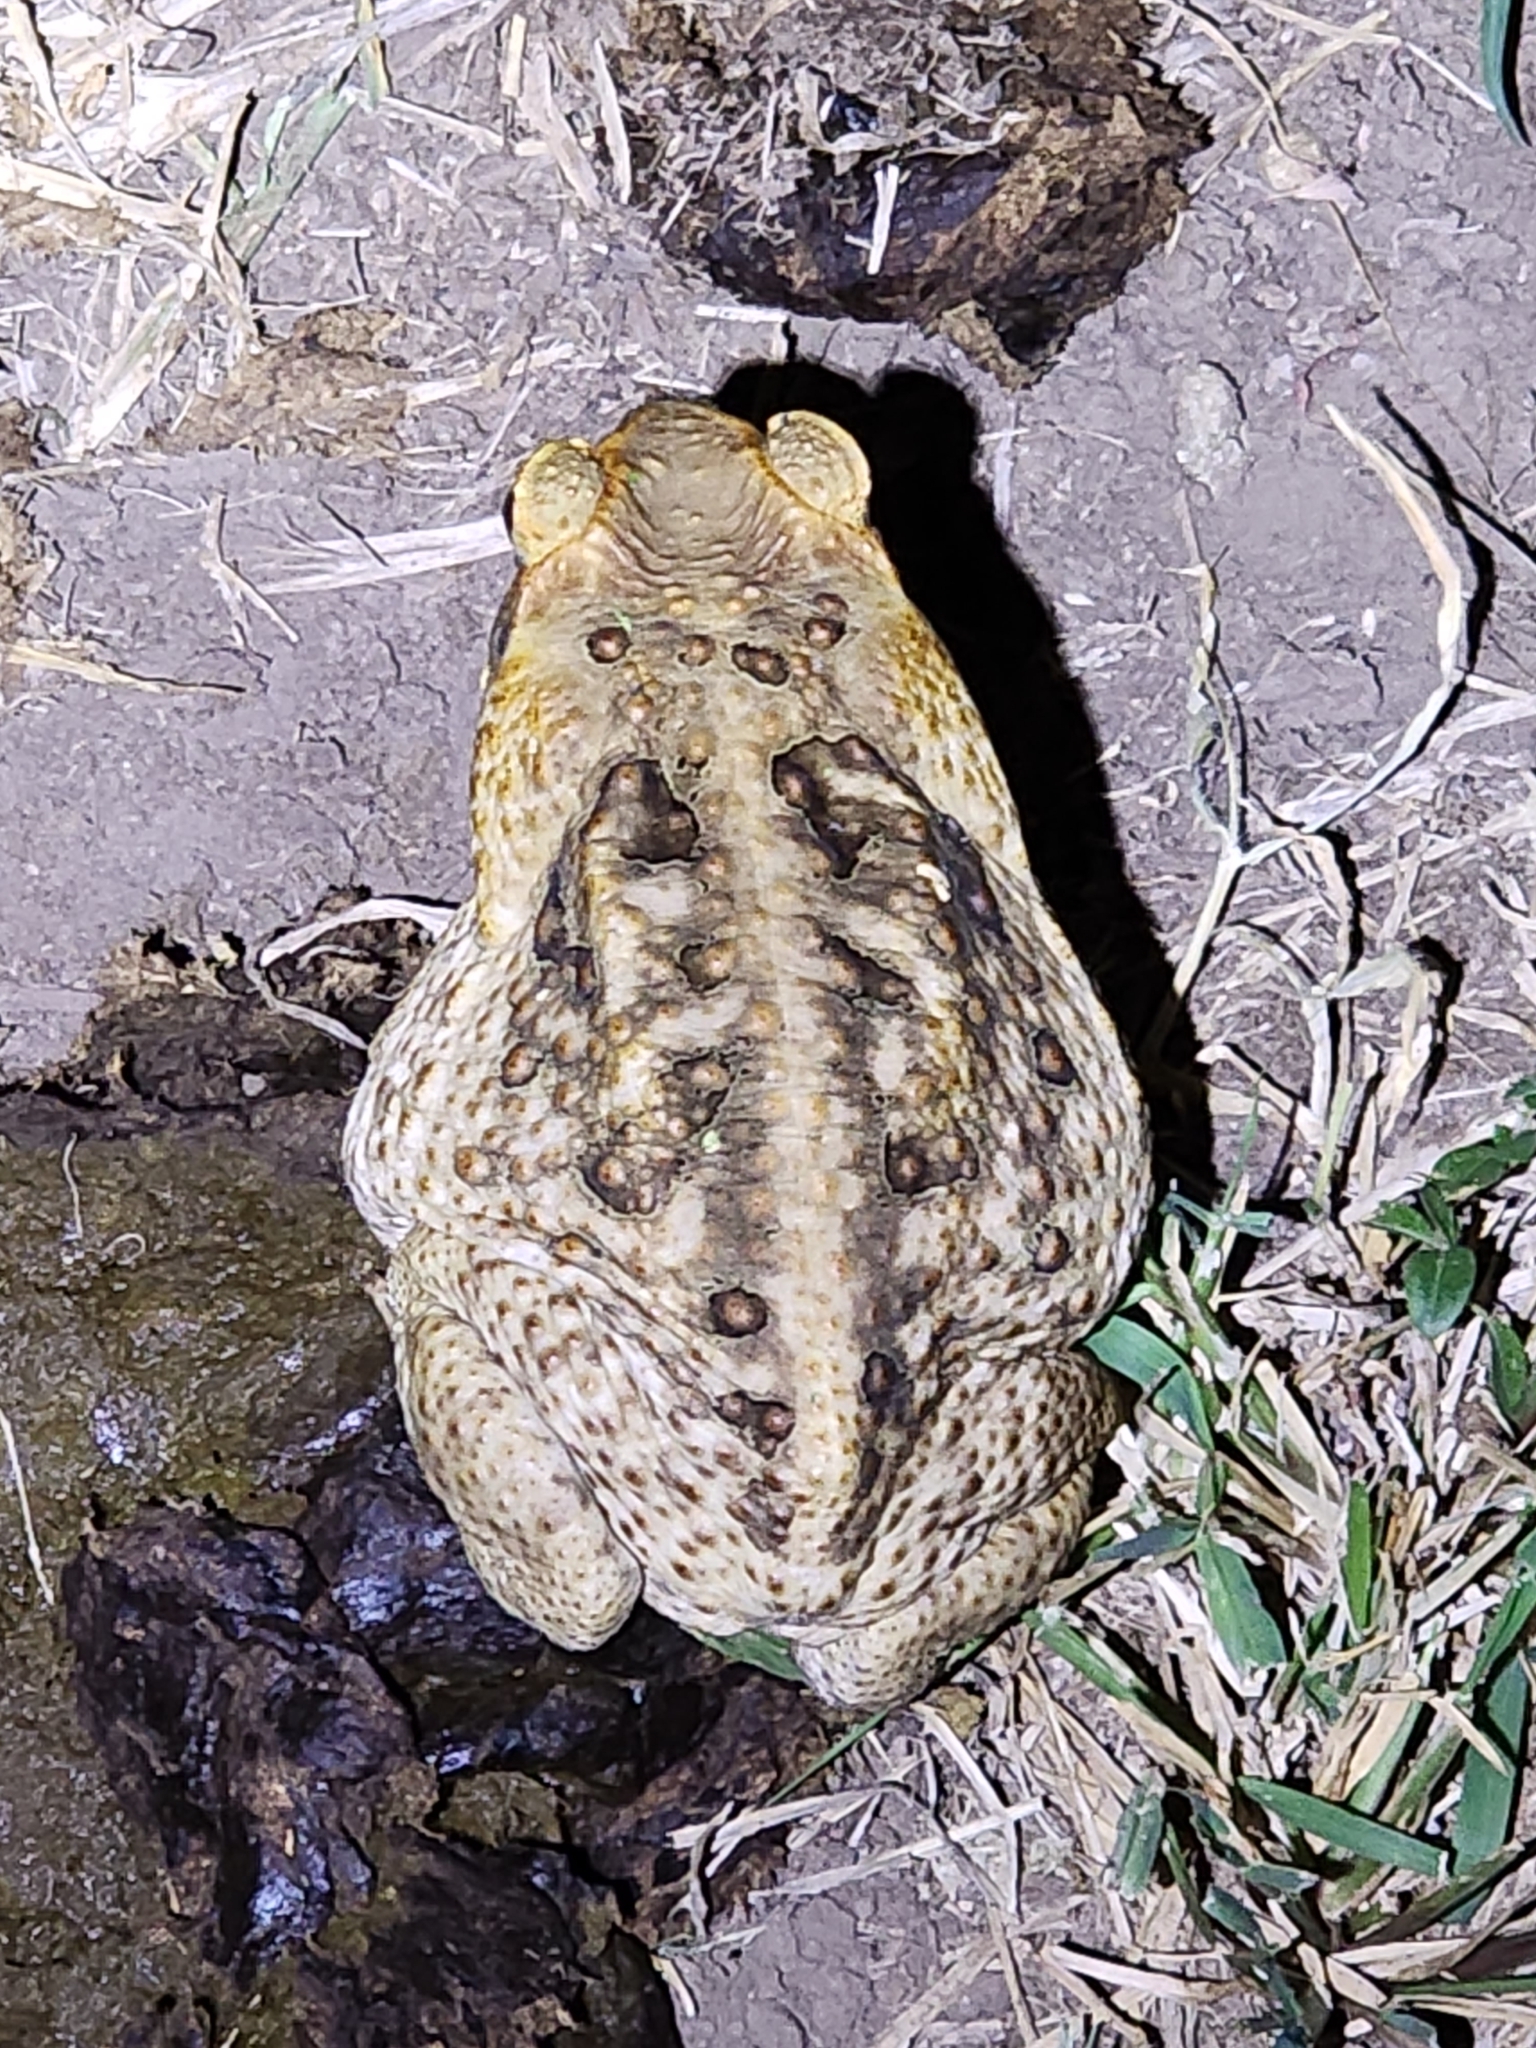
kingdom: Animalia
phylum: Chordata
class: Amphibia
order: Anura
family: Bufonidae
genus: Rhinella
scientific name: Rhinella marina
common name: Cane toad
